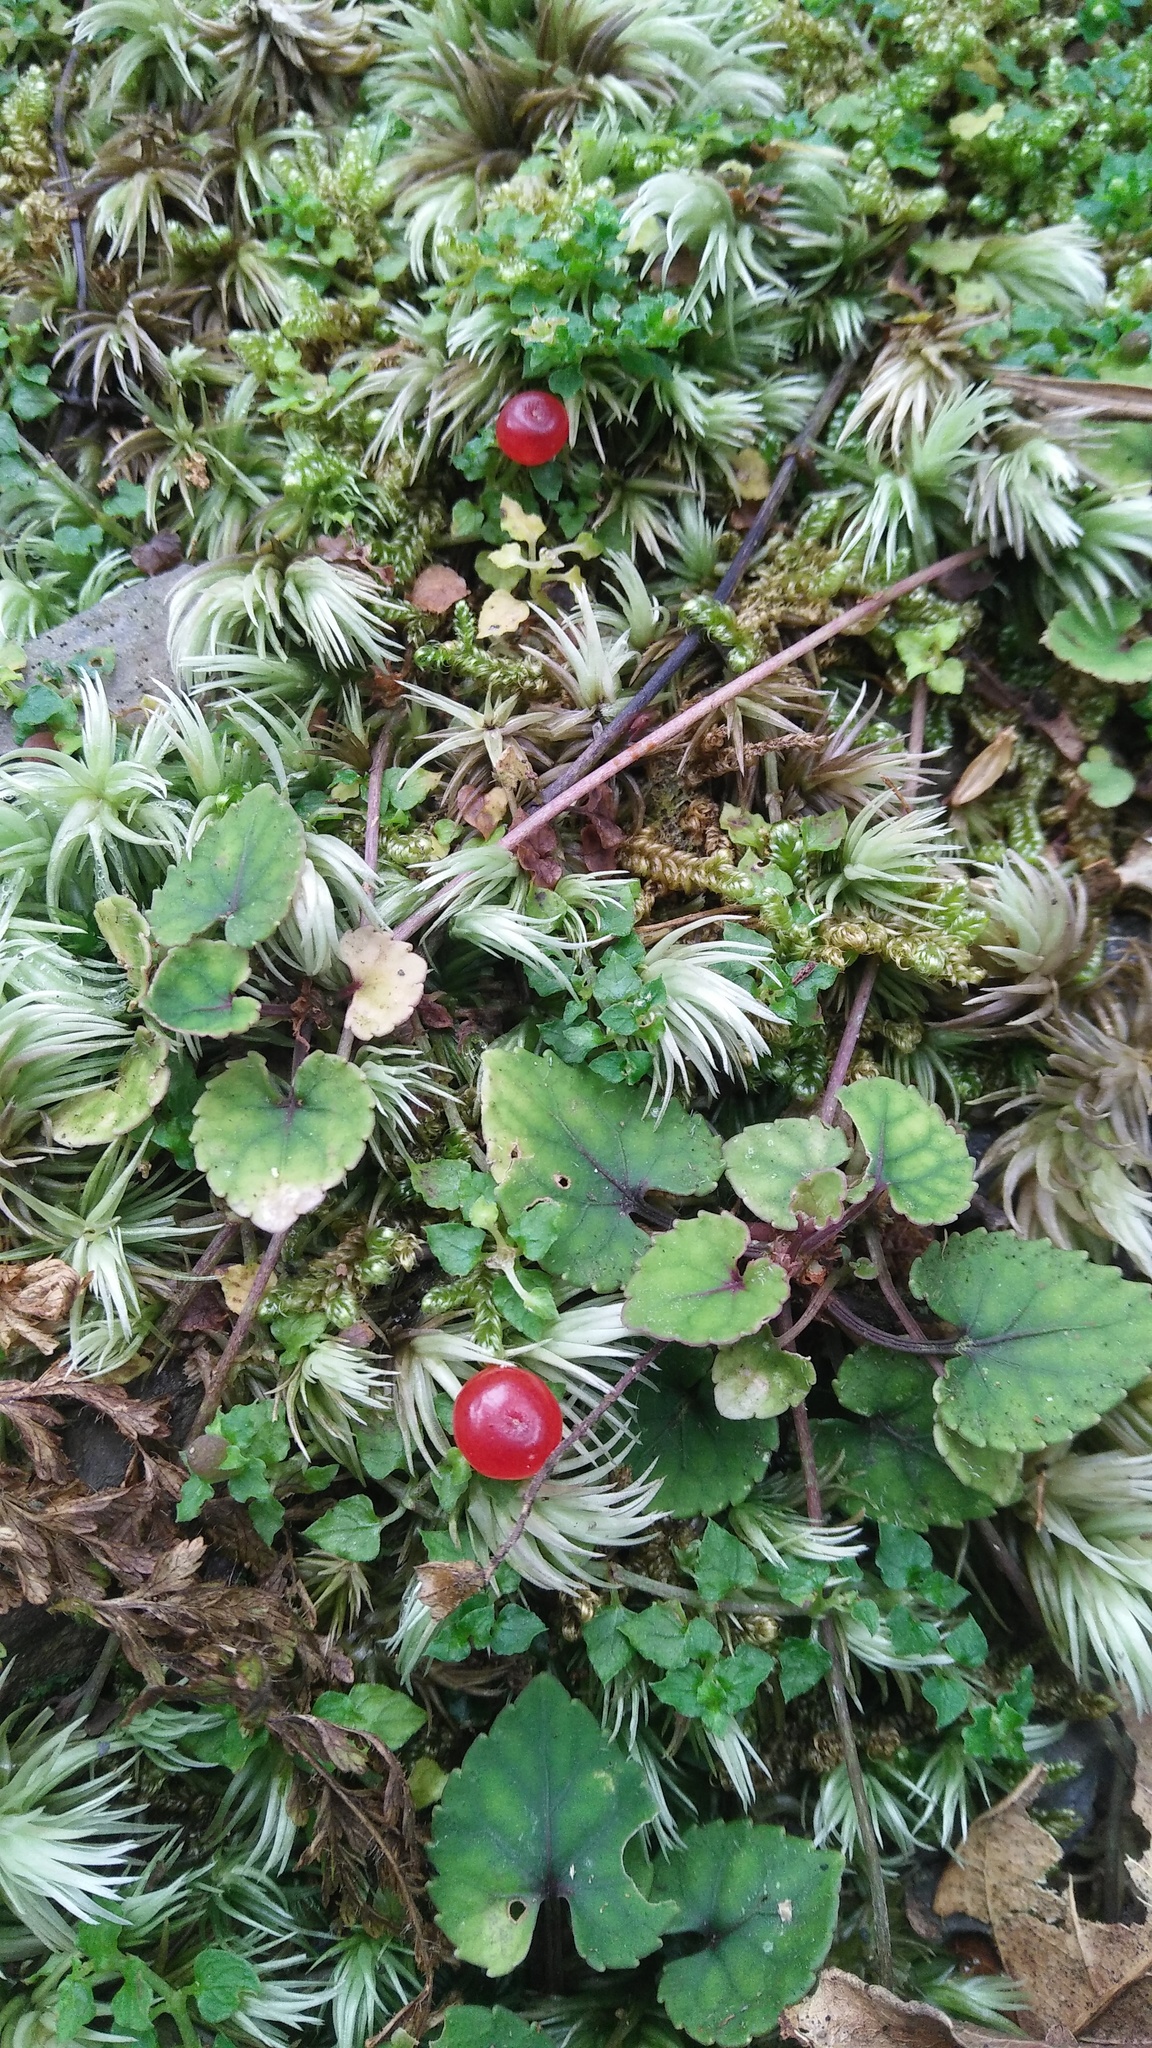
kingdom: Plantae
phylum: Tracheophyta
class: Magnoliopsida
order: Gentianales
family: Rubiaceae
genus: Nertera
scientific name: Nertera granadensis
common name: Beadplant
